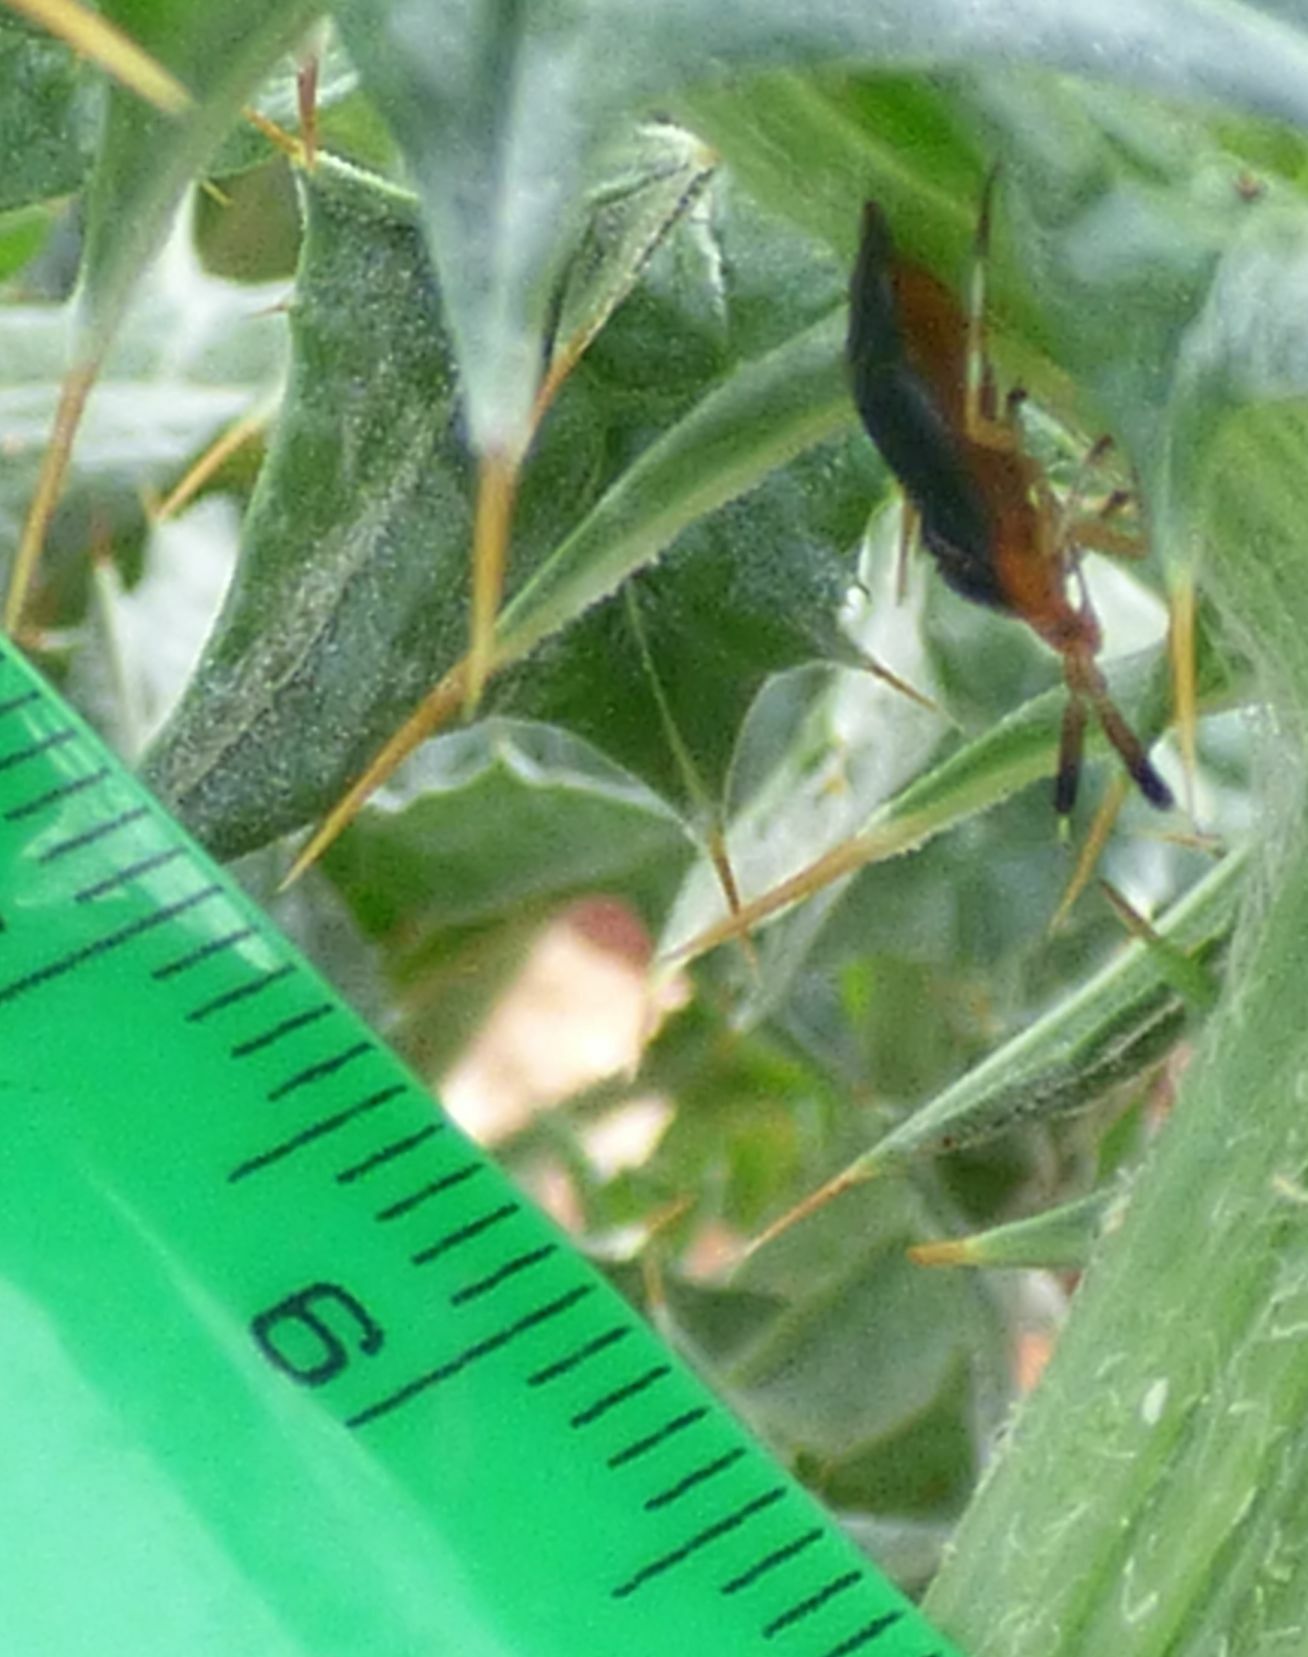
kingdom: Animalia
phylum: Arthropoda
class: Insecta
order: Hemiptera
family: Miridae
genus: Deraeocoris
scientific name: Deraeocoris delagrangei
